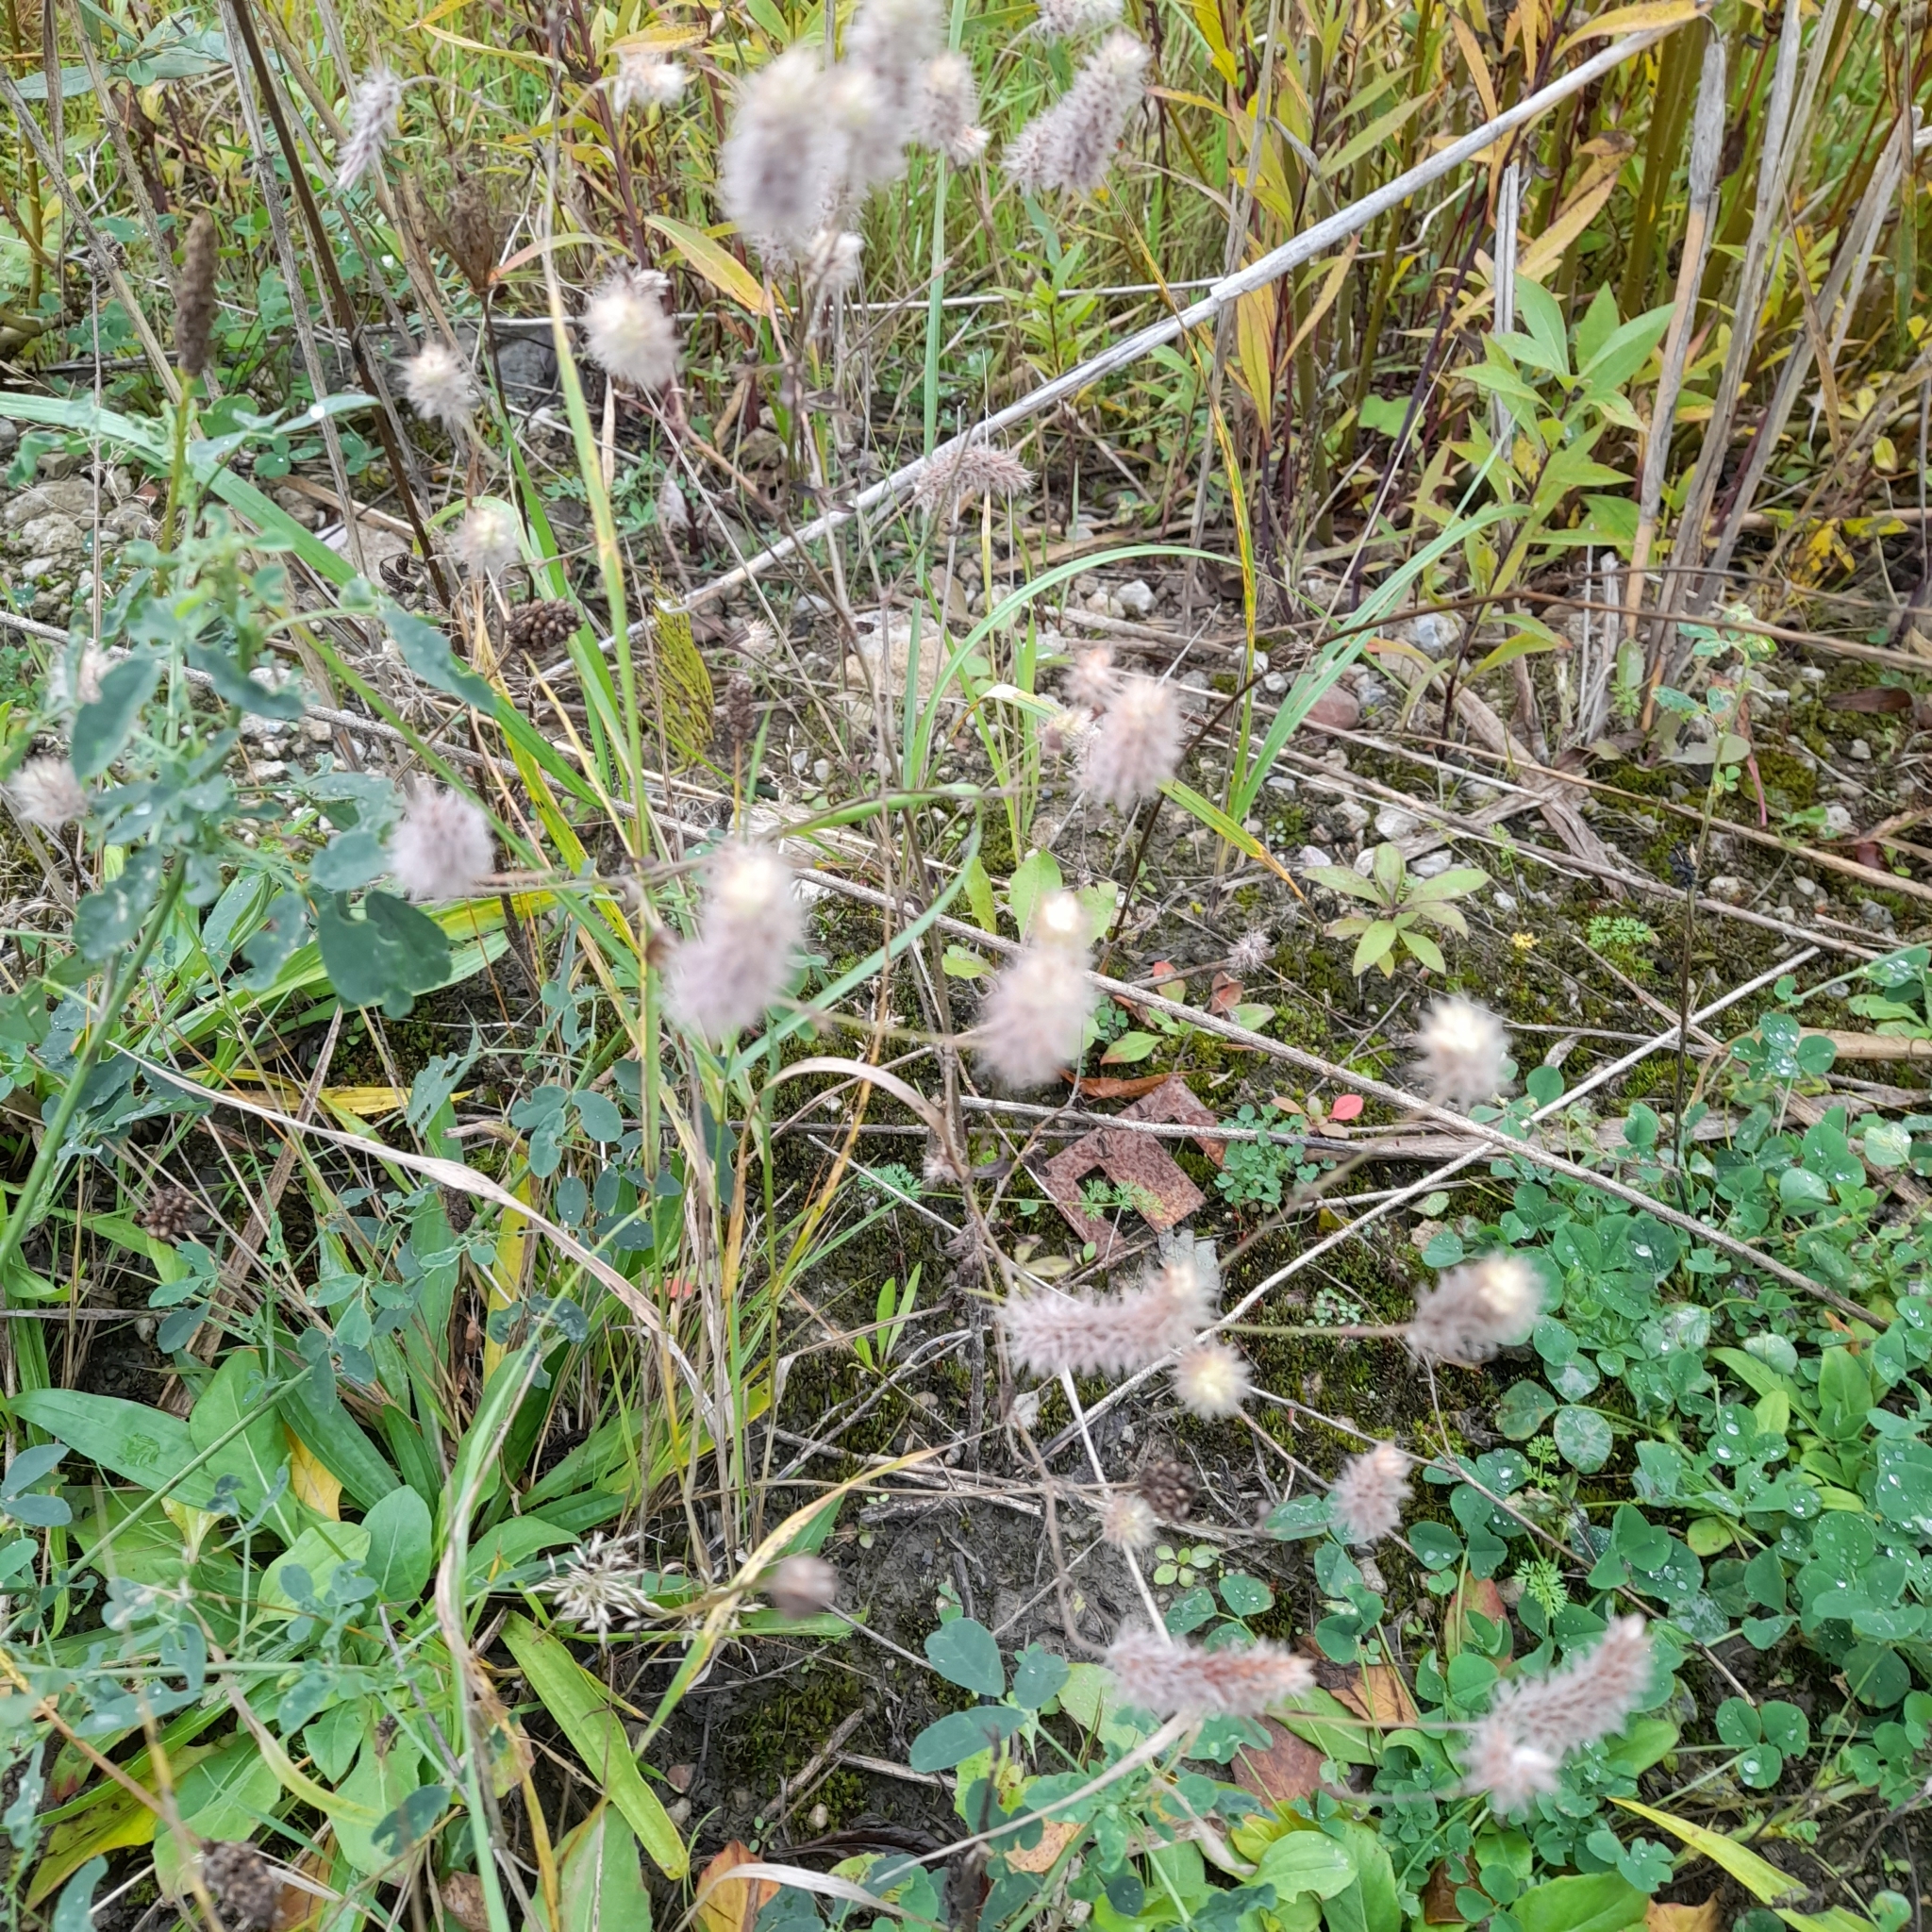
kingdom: Plantae
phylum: Tracheophyta
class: Magnoliopsida
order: Fabales
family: Fabaceae
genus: Trifolium
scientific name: Trifolium arvense
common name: Hare's-foot clover
